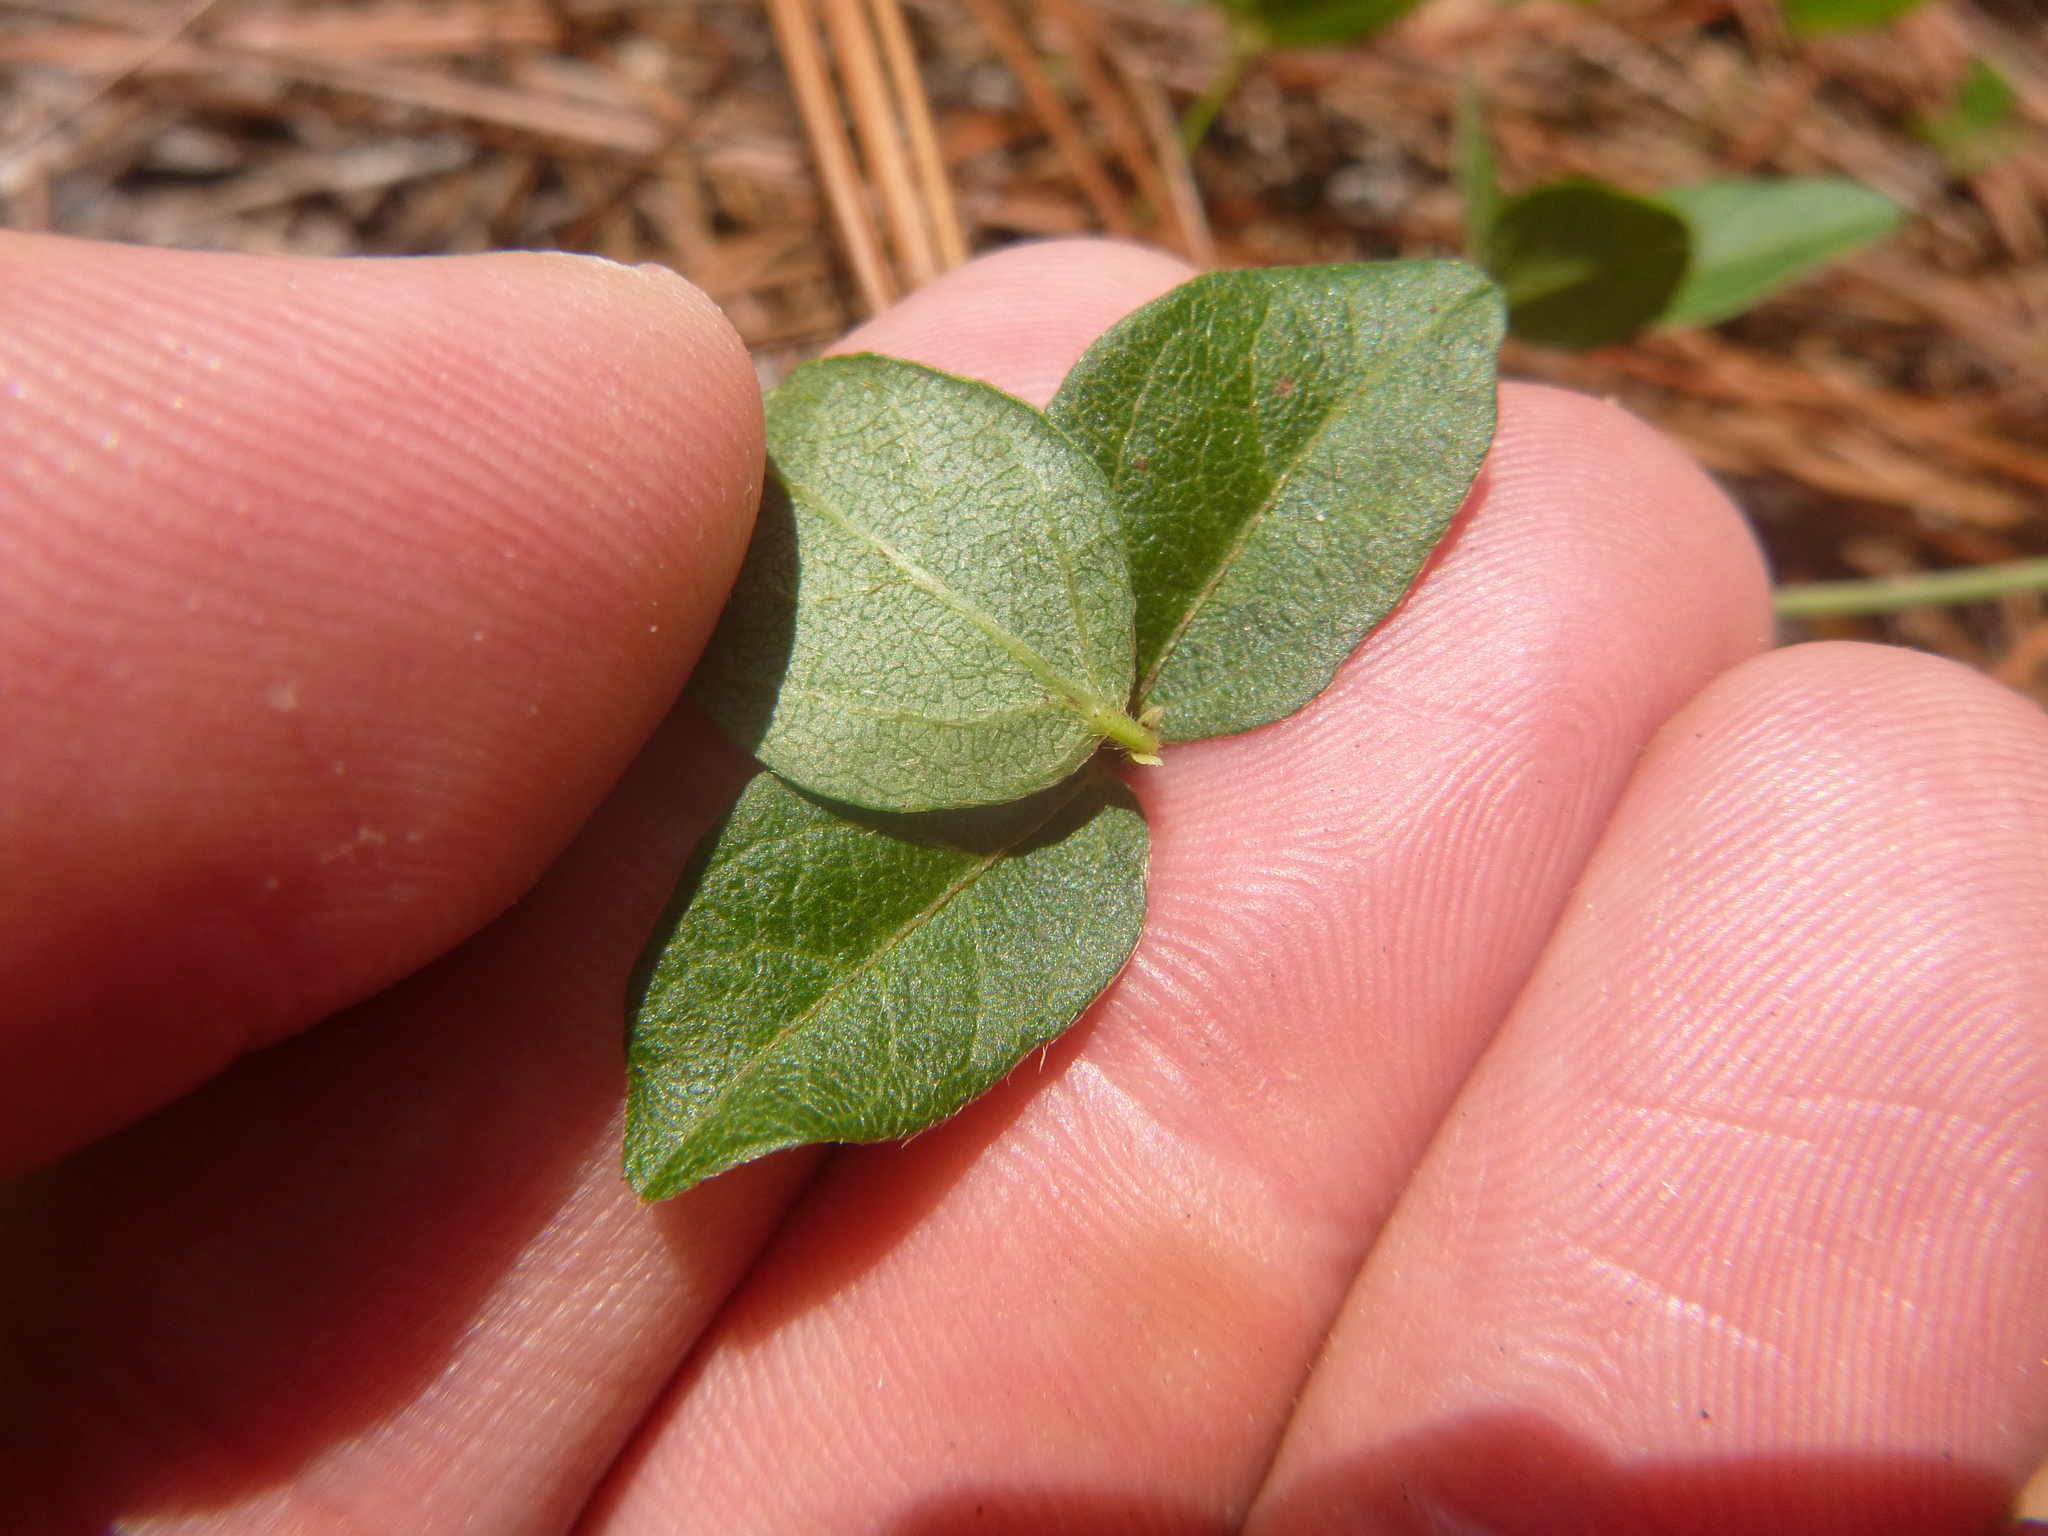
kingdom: Plantae
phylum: Tracheophyta
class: Magnoliopsida
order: Fabales
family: Fabaceae
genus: Strophostyles
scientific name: Strophostyles umbellata
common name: Perennial wild bean
